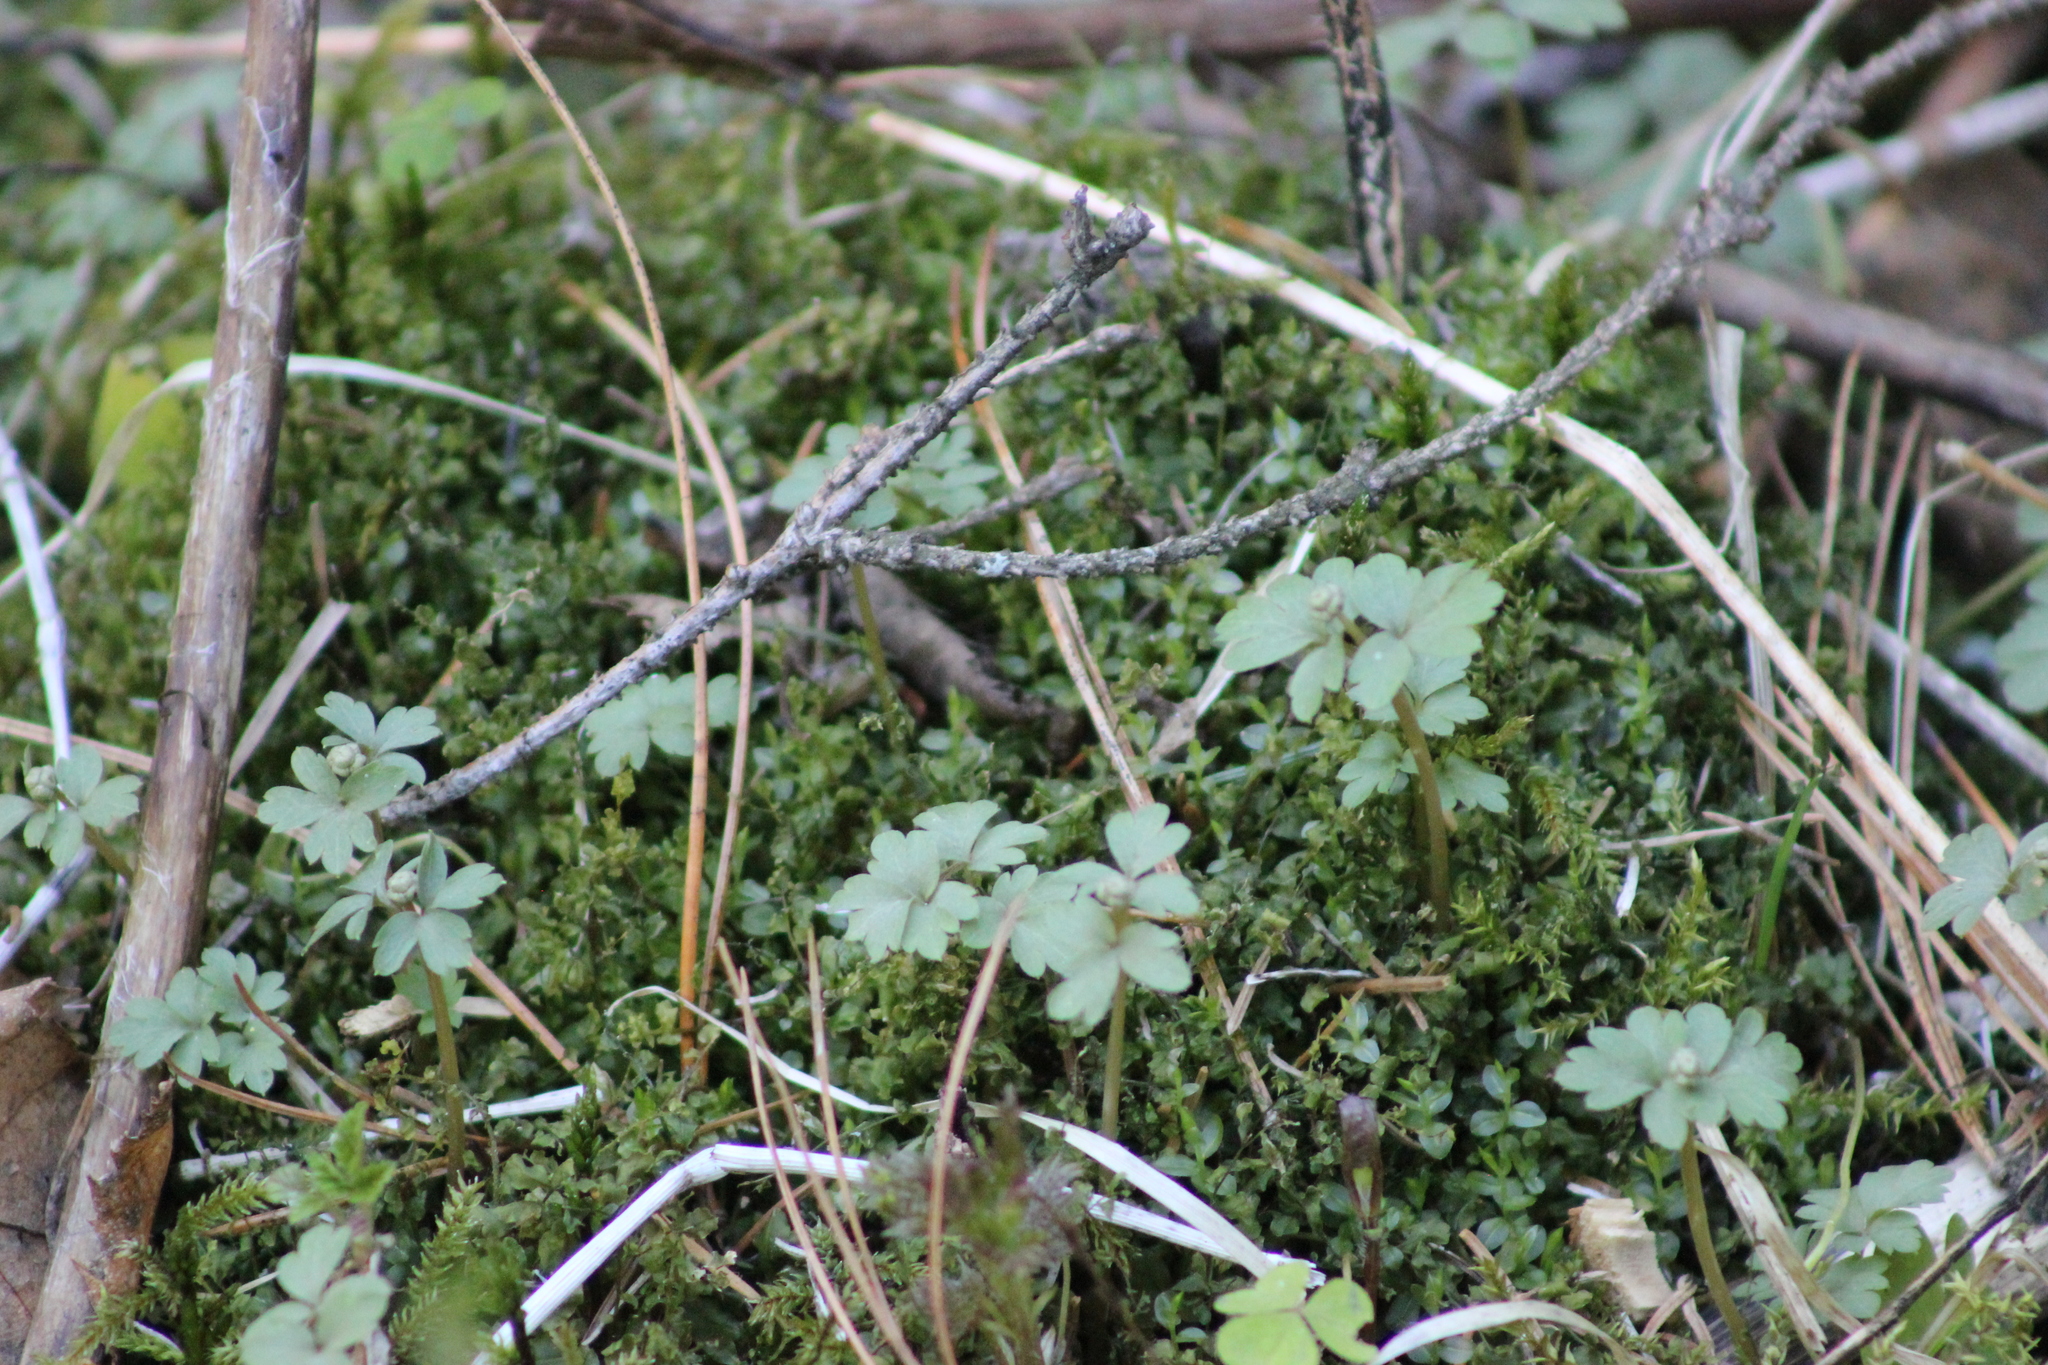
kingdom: Plantae
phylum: Tracheophyta
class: Magnoliopsida
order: Dipsacales
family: Viburnaceae
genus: Adoxa
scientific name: Adoxa moschatellina
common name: Moschatel
